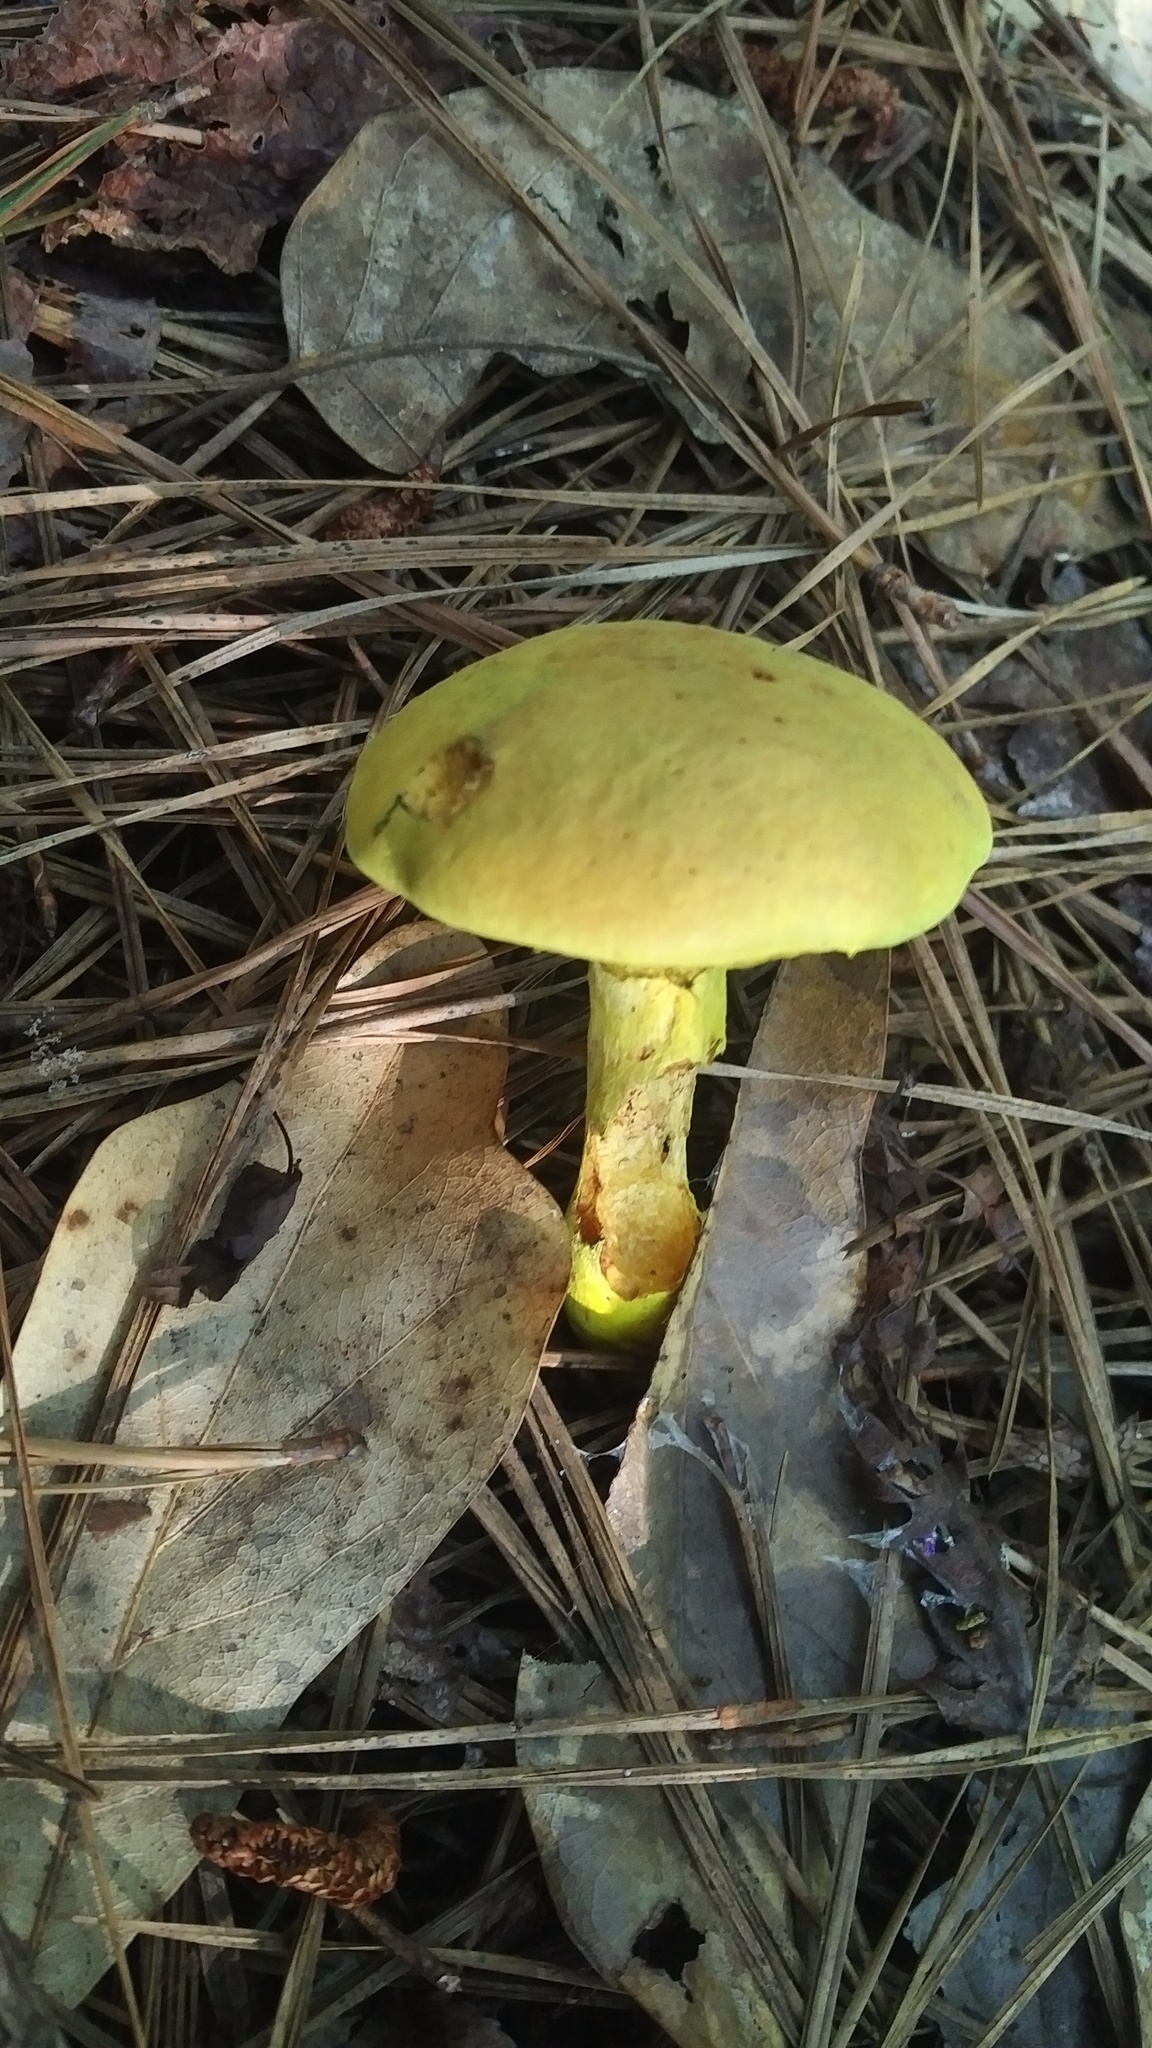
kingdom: Fungi
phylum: Basidiomycota
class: Agaricomycetes
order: Boletales
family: Boletaceae
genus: Pulveroboletus
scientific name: Pulveroboletus ravenelii
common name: Powdery sulfur bolete
